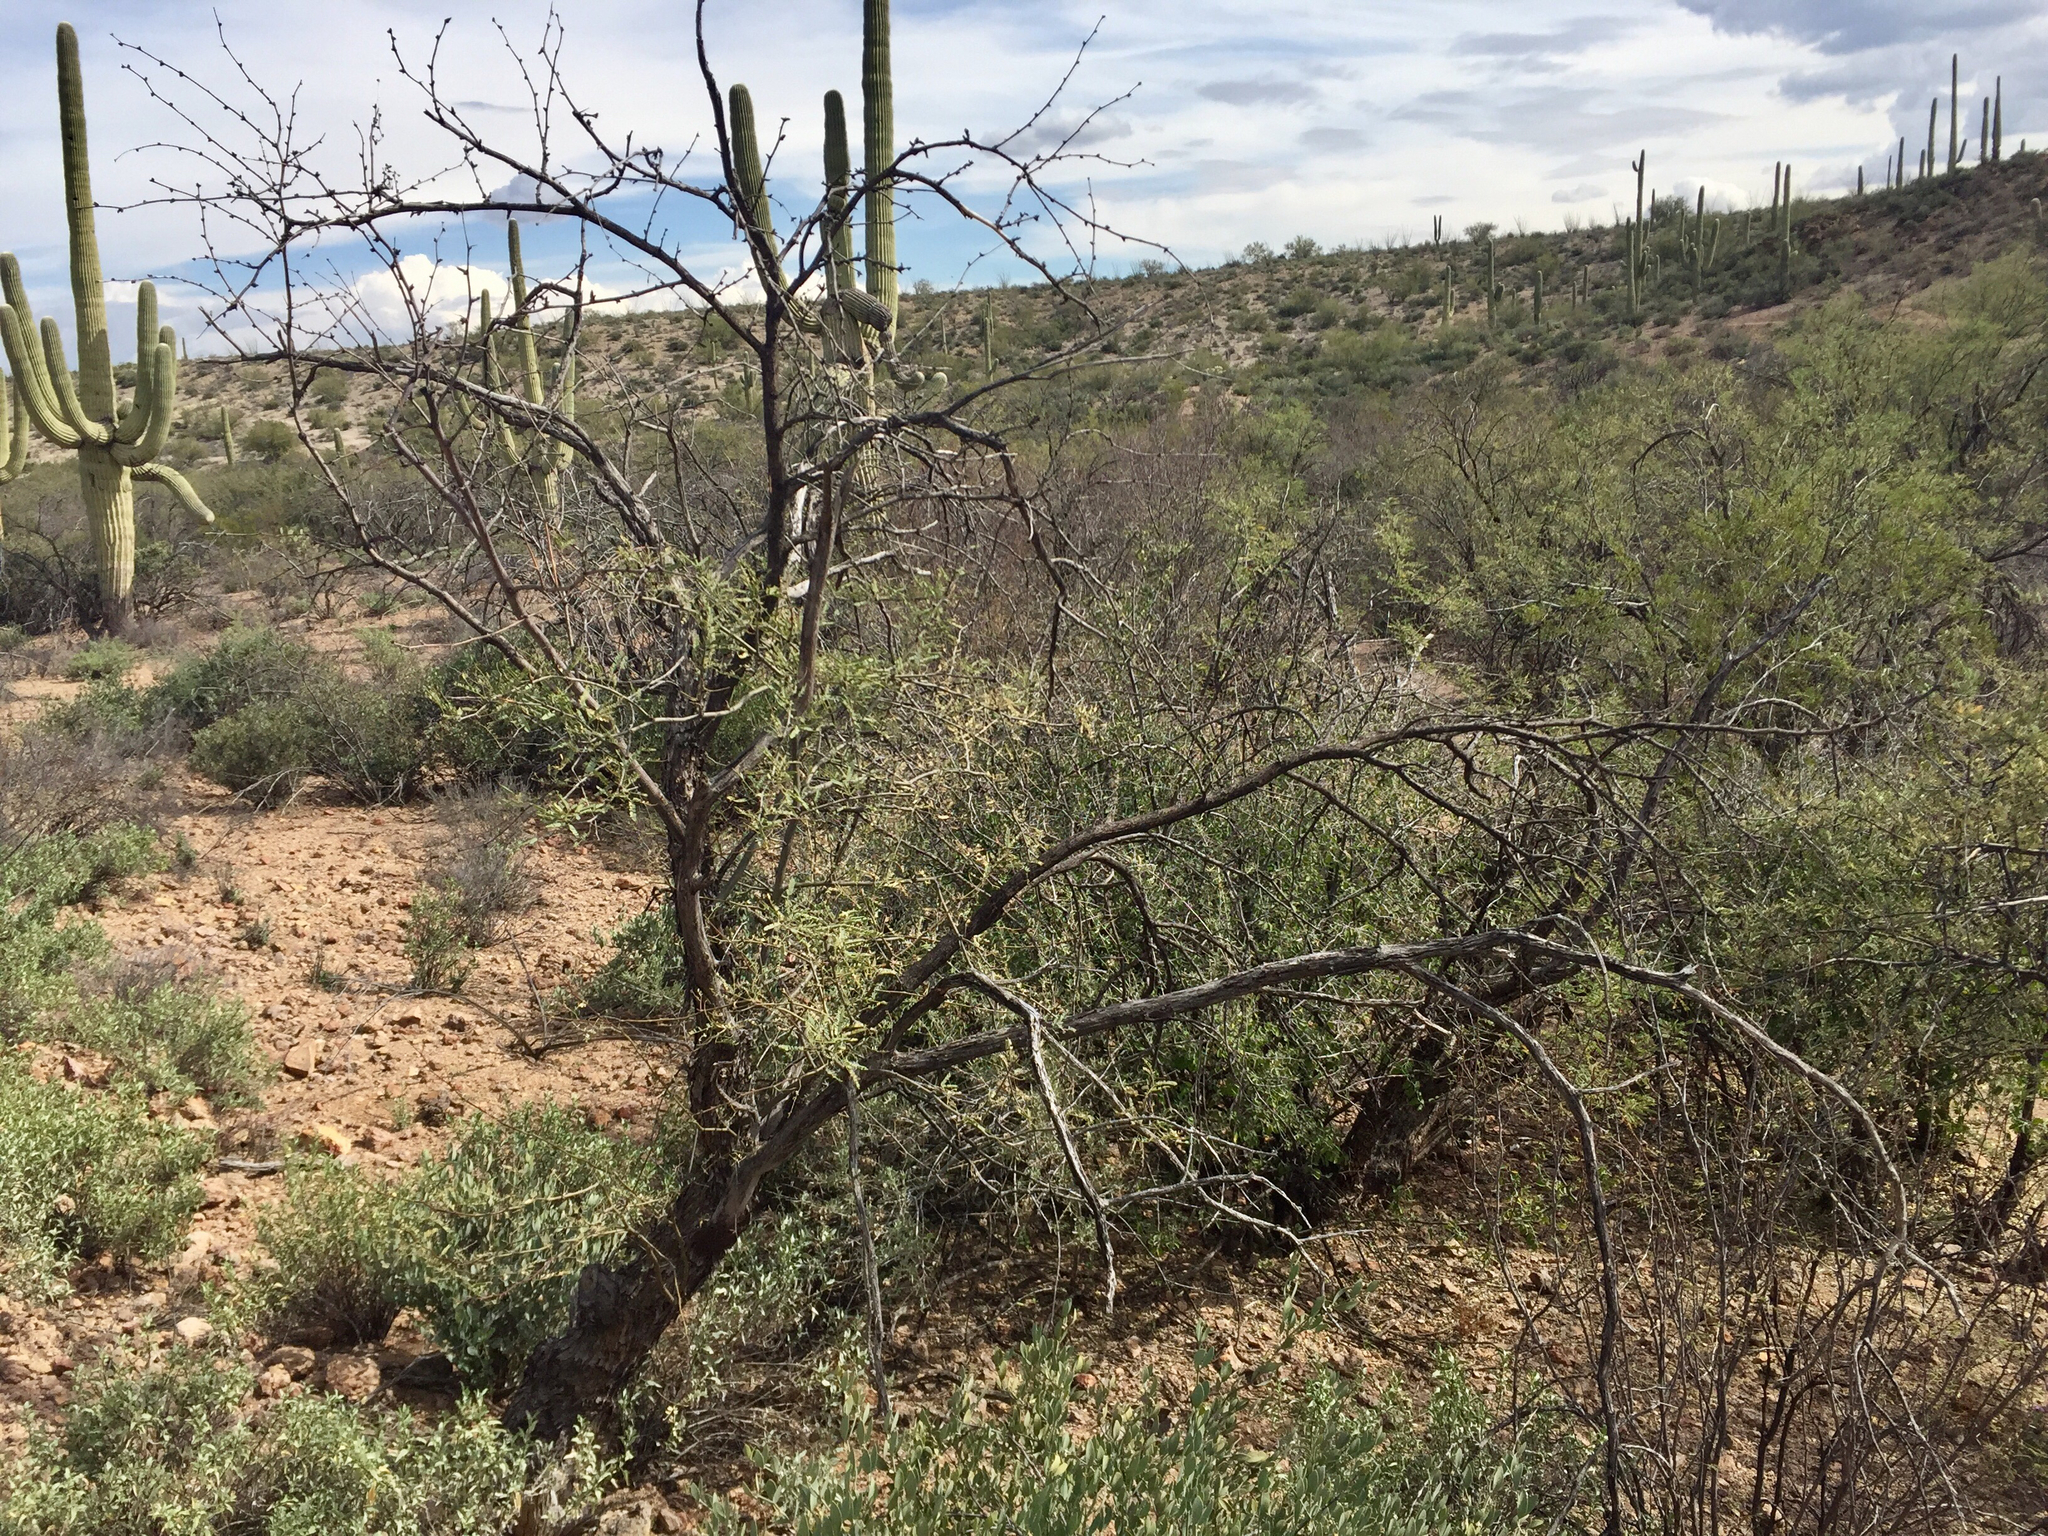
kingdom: Plantae
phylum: Tracheophyta
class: Magnoliopsida
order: Fabales
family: Fabaceae
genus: Prosopis
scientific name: Prosopis velutina
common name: Velvet mesquite
